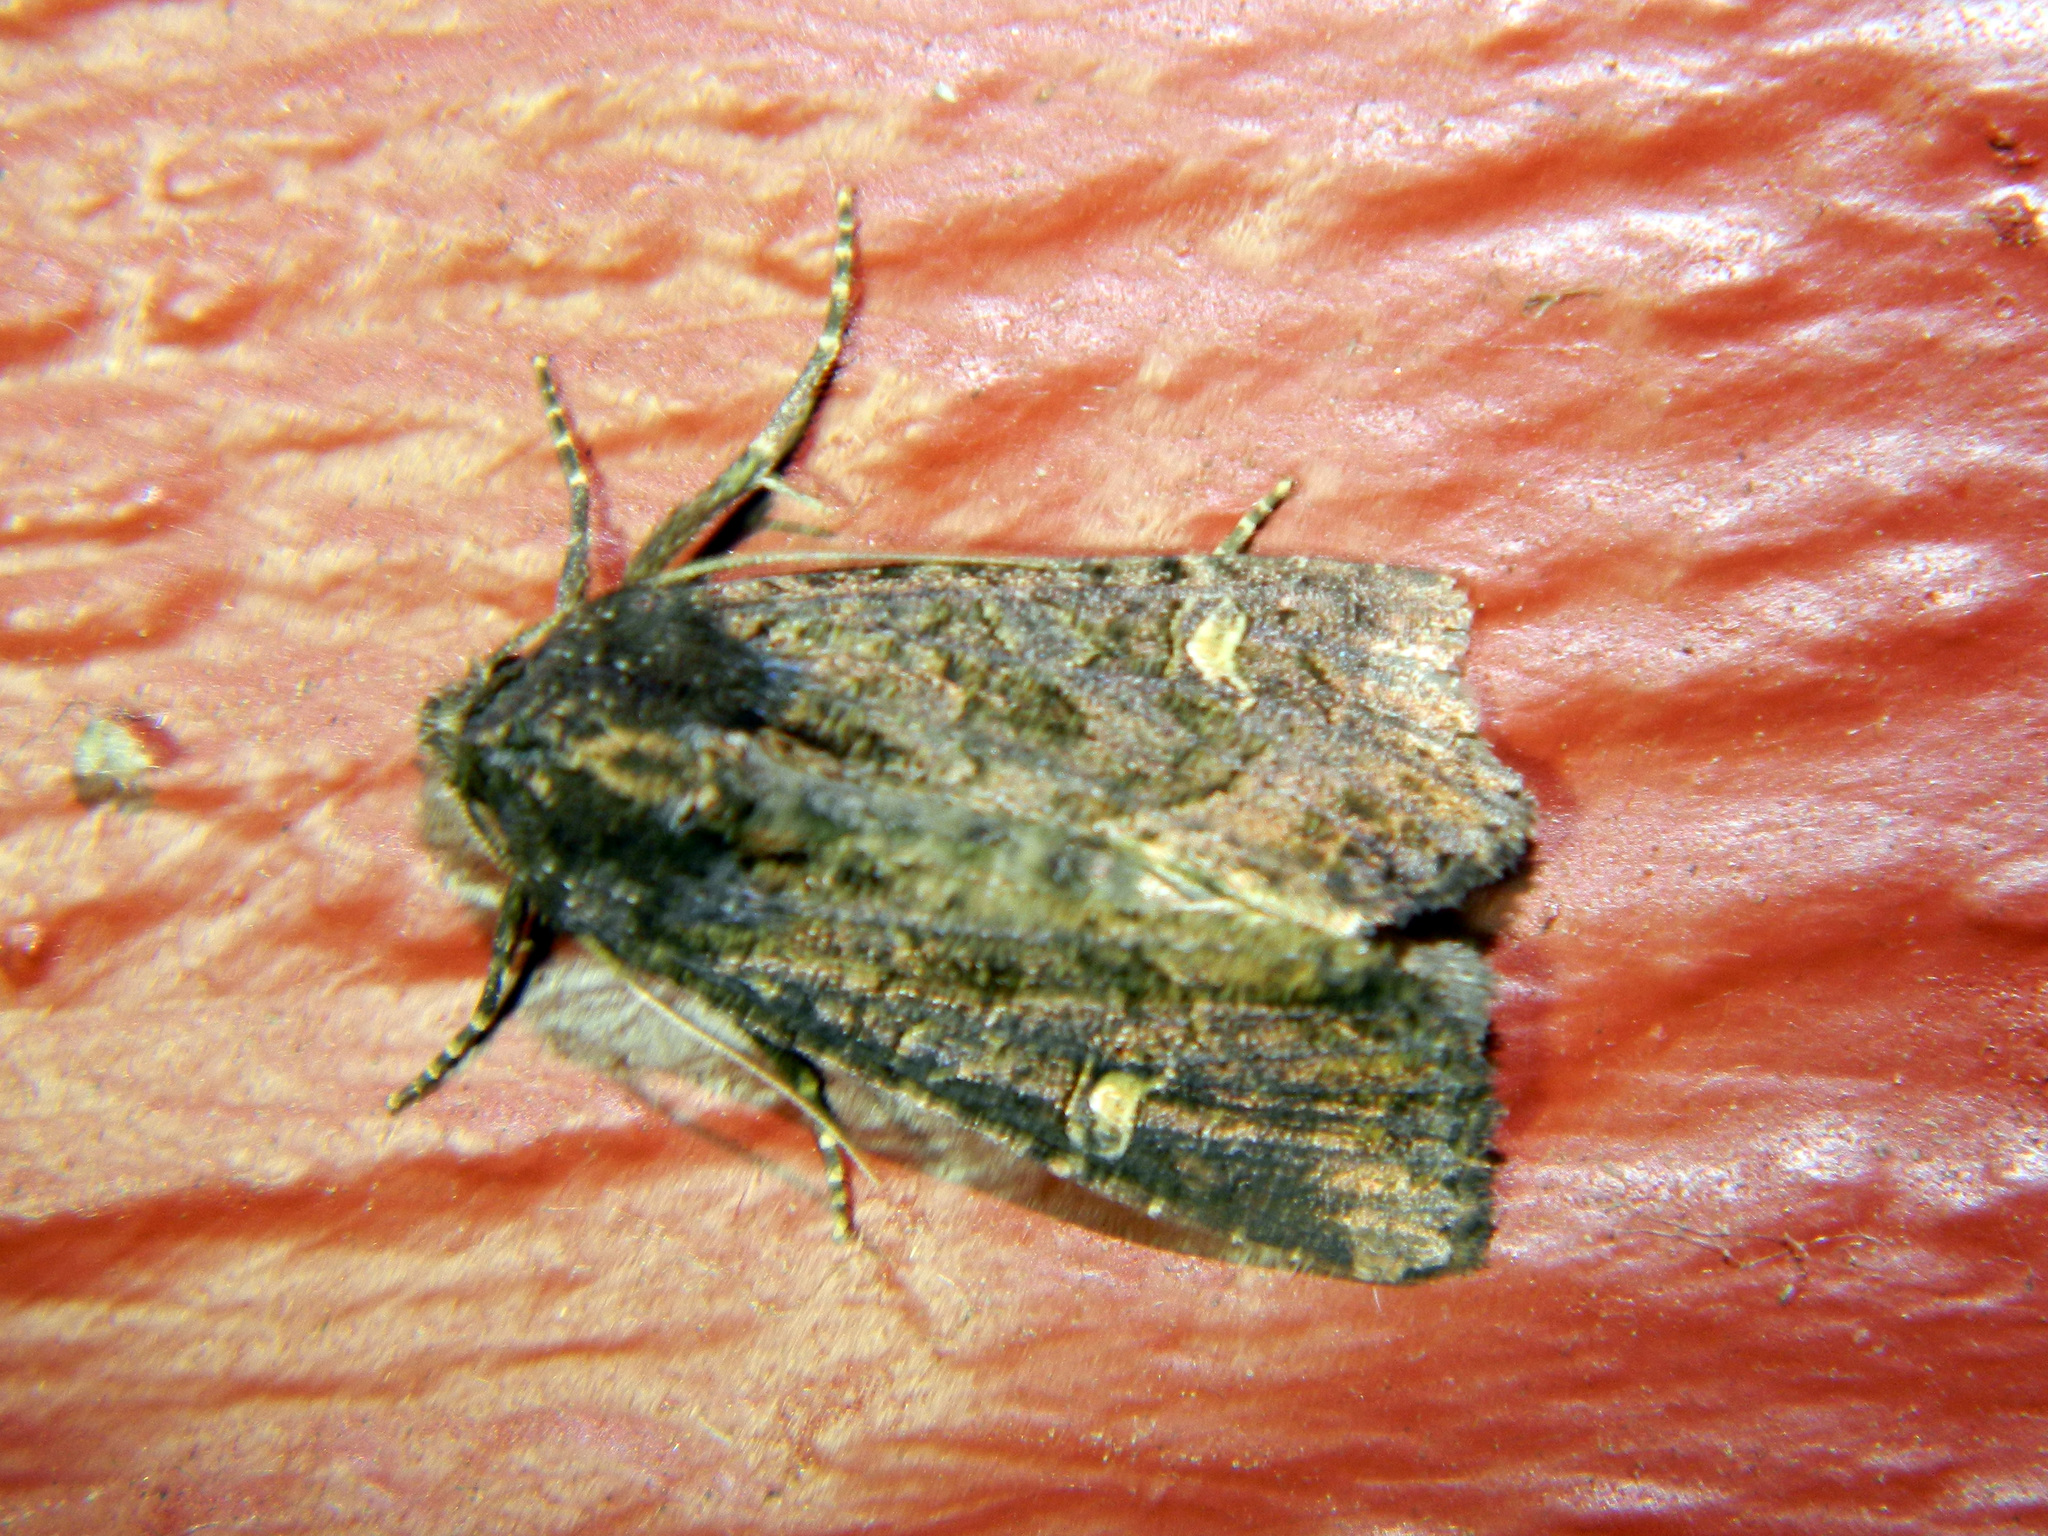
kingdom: Animalia
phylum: Arthropoda
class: Insecta
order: Lepidoptera
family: Noctuidae
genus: Helotropha
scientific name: Helotropha reniformis
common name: Kidney-spotted rustic moth
